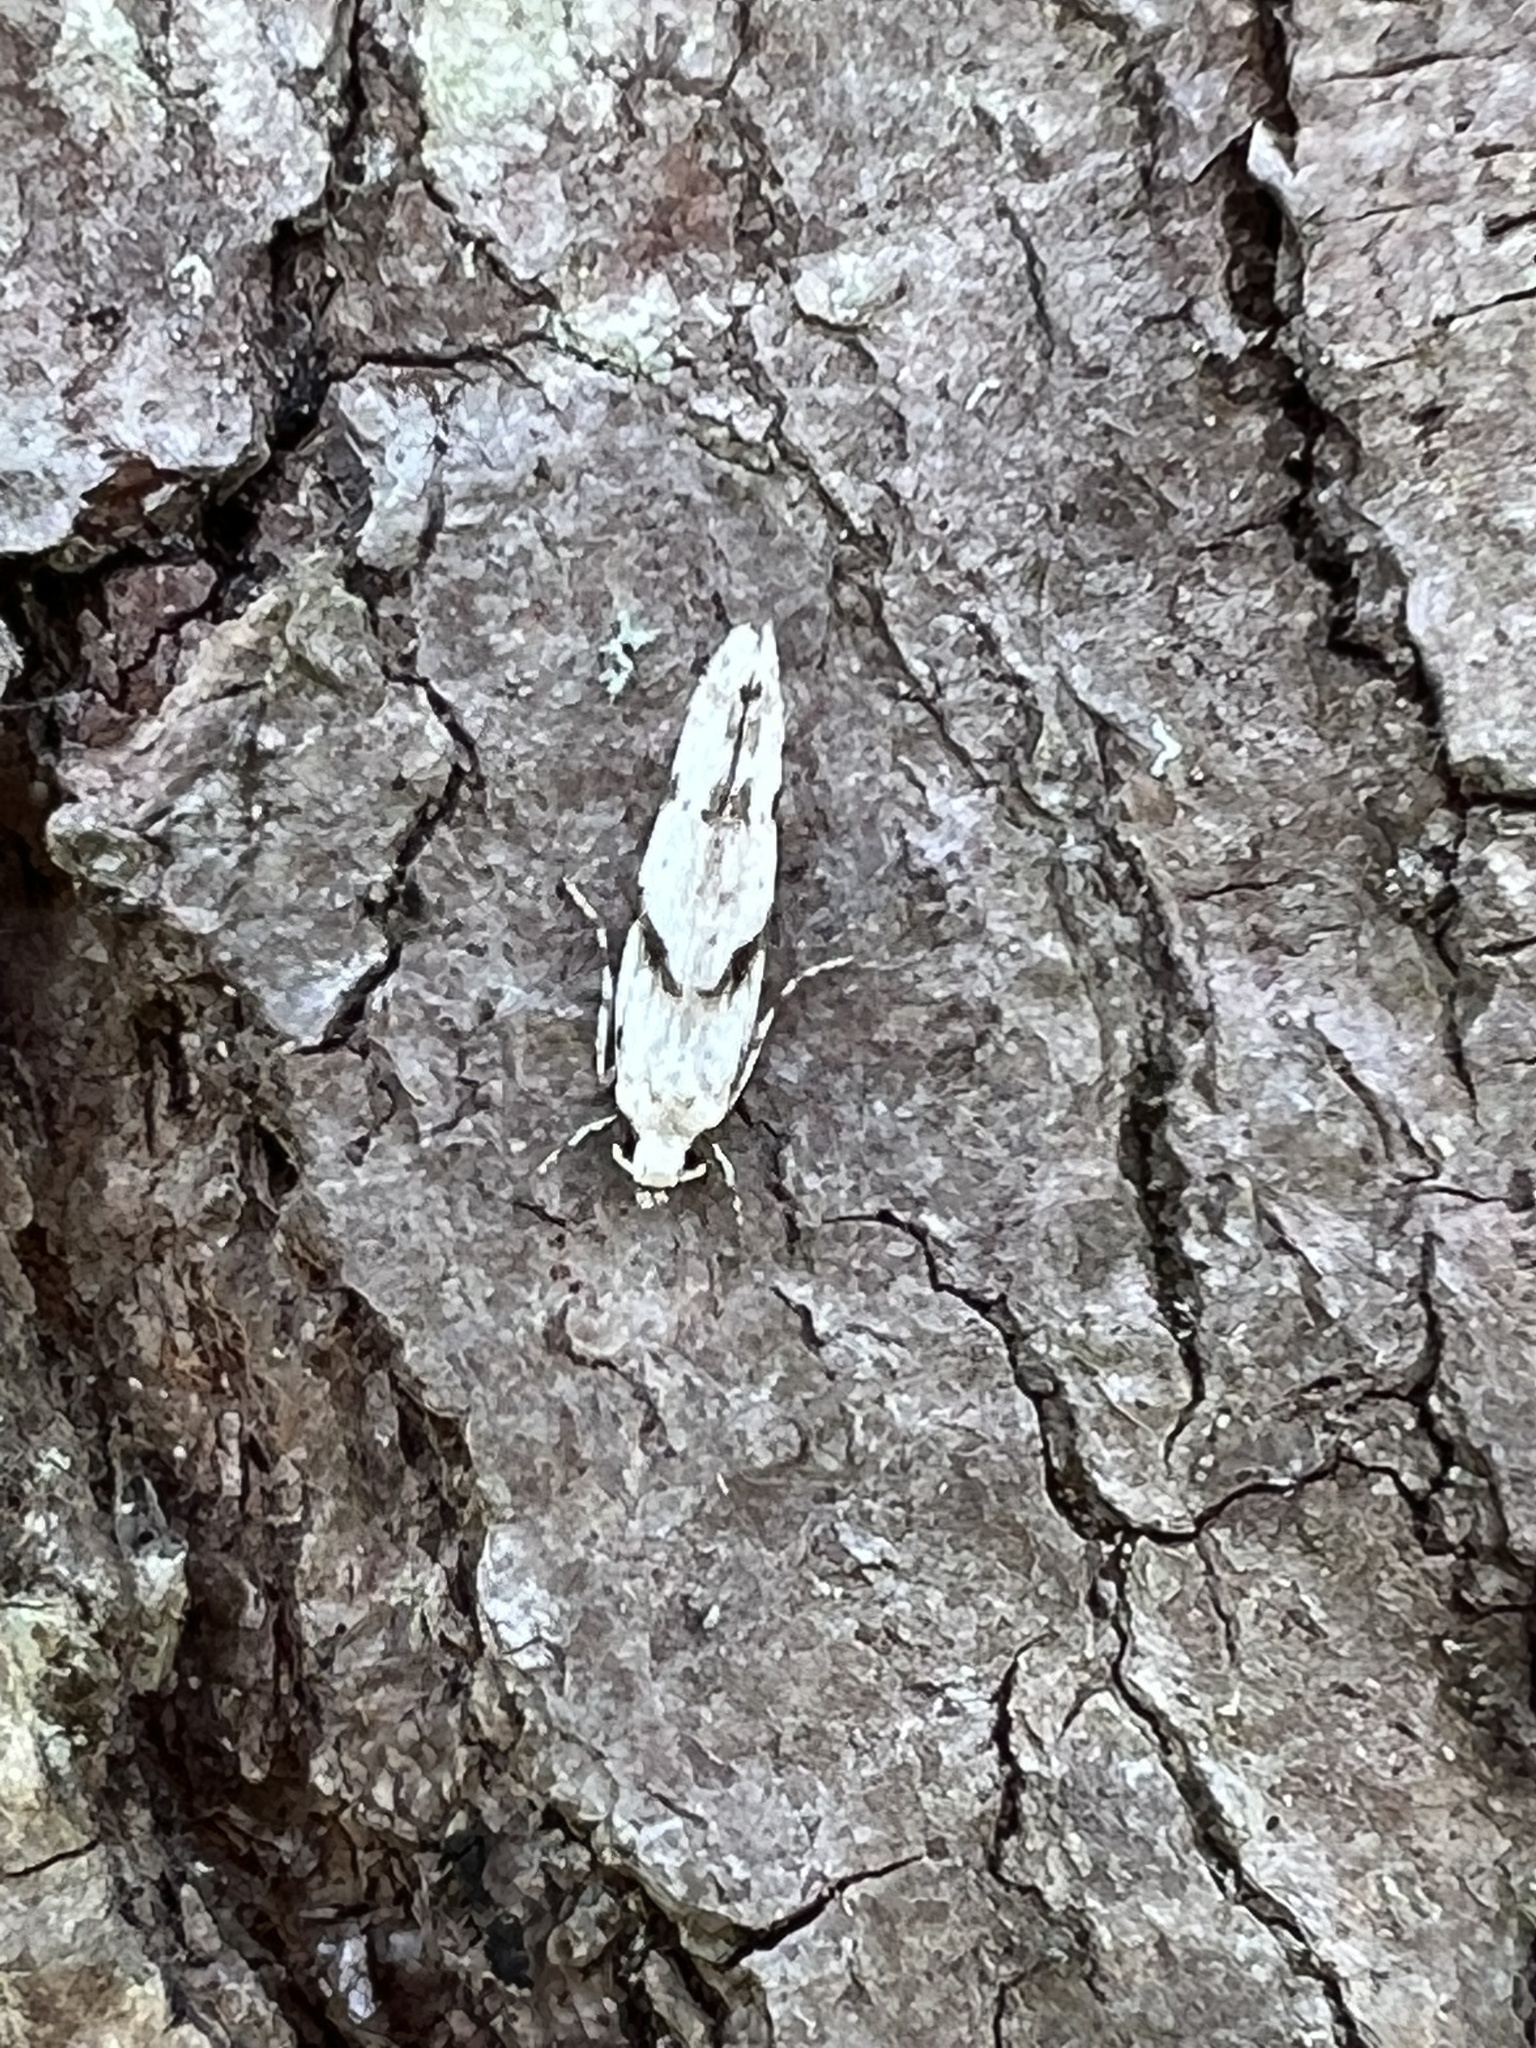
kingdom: Animalia
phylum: Arthropoda
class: Insecta
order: Lepidoptera
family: Gelechiidae
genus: Arogalea
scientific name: Arogalea cristifasciella
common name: White stripe-backed moth
